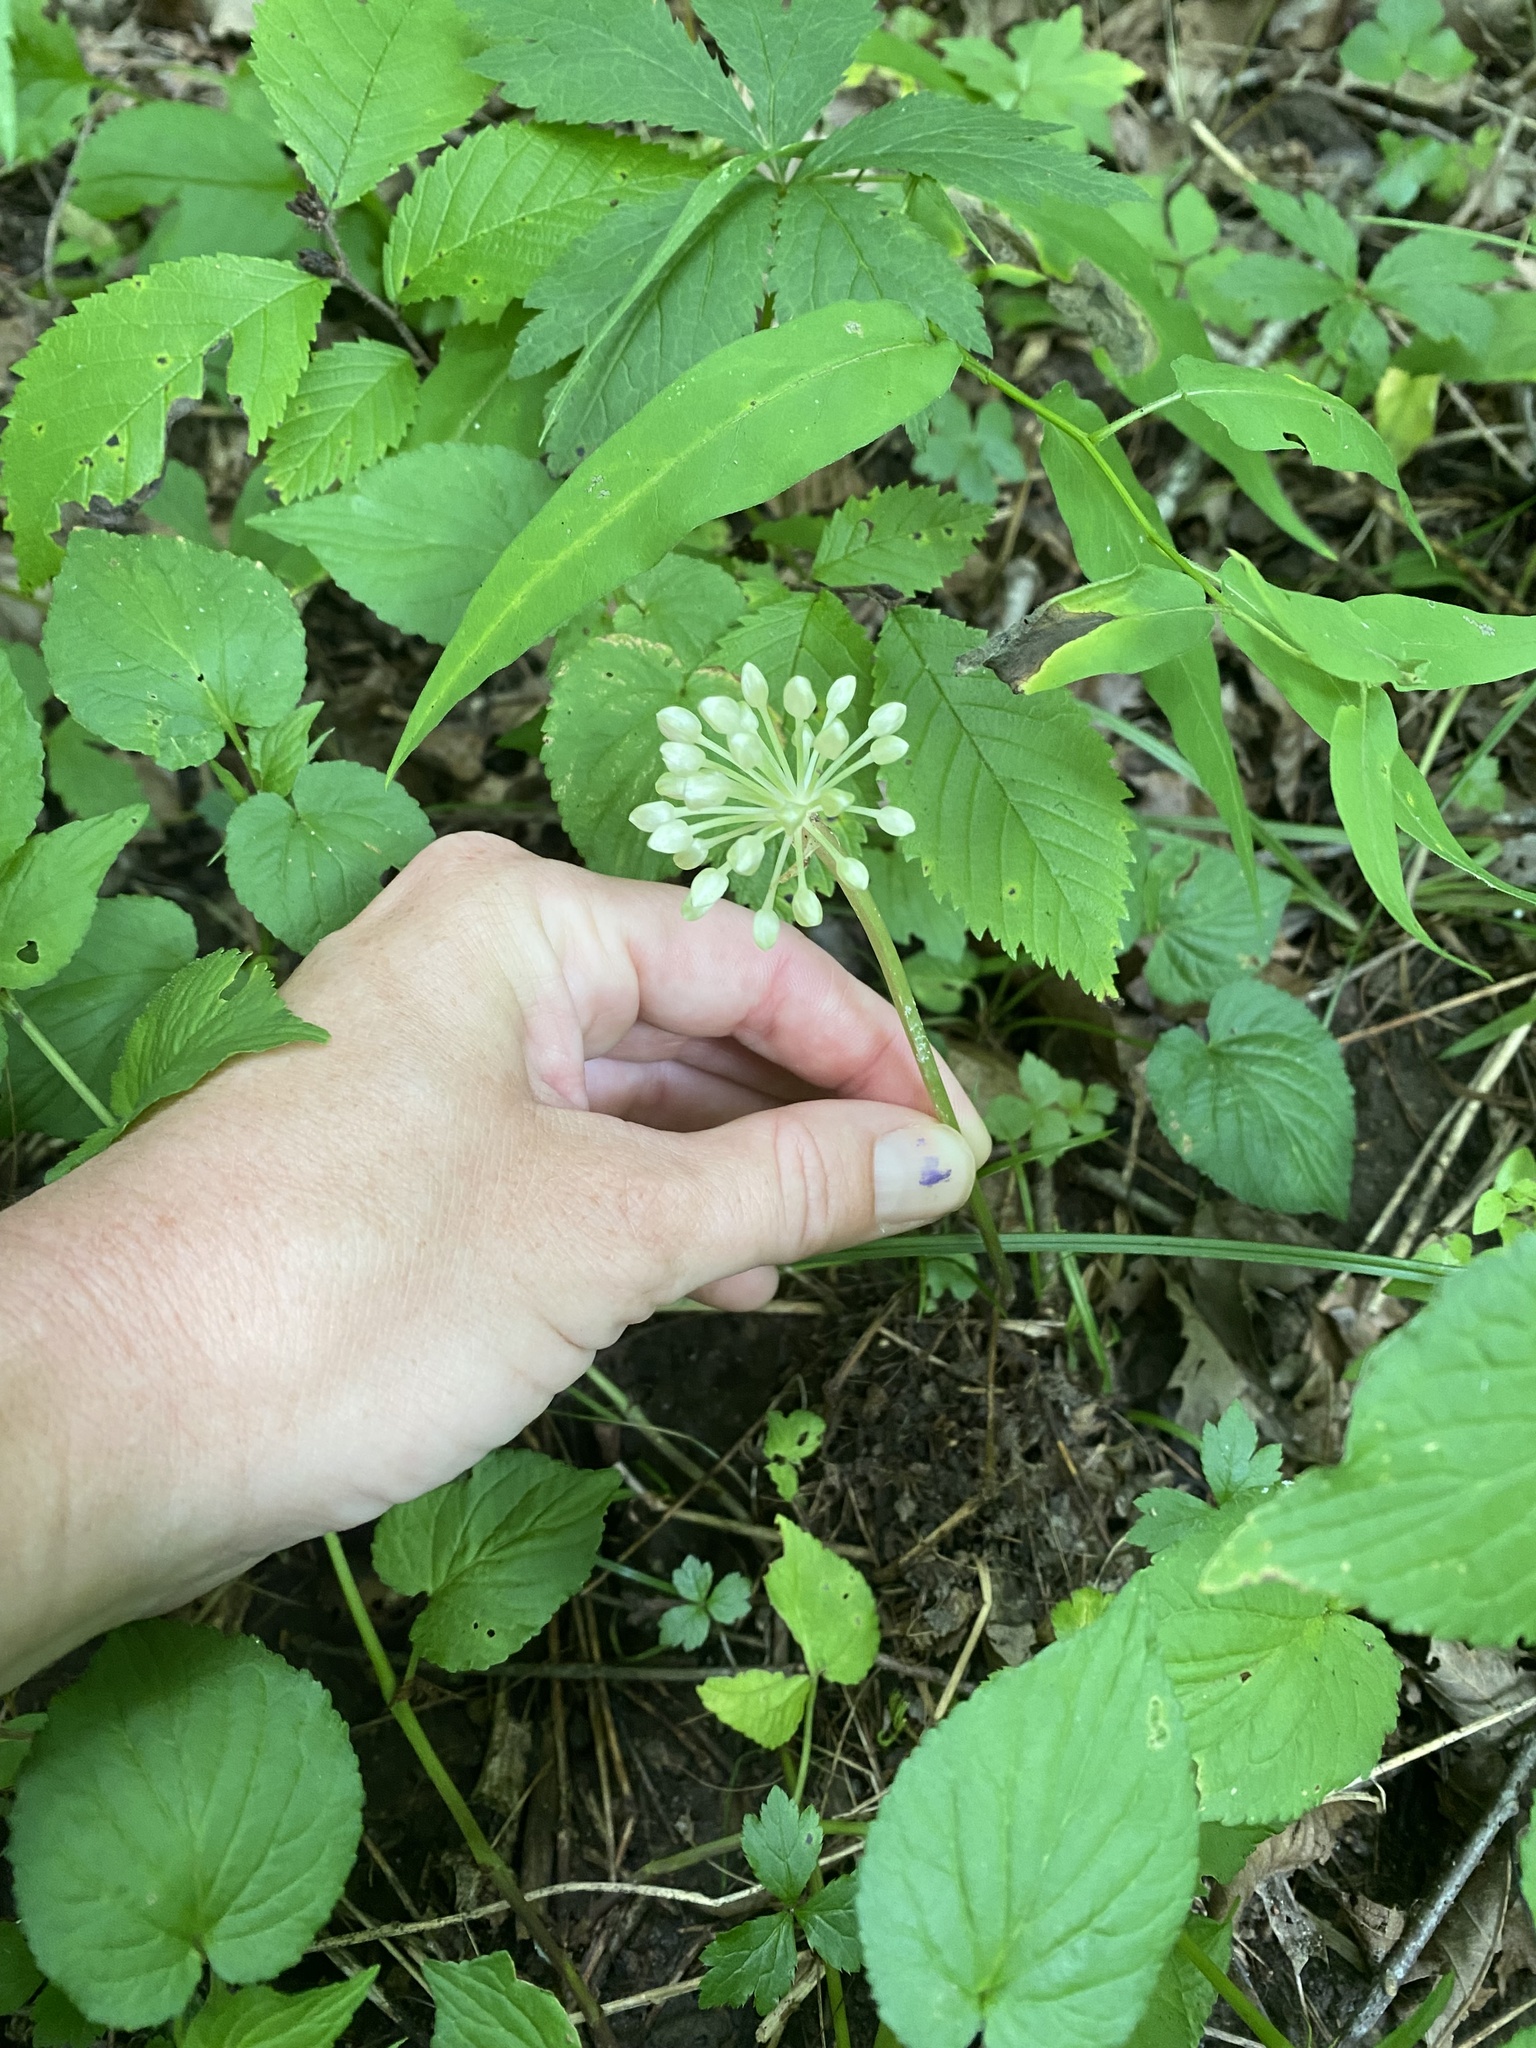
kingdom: Plantae
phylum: Tracheophyta
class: Liliopsida
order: Asparagales
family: Amaryllidaceae
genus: Allium
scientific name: Allium tricoccum
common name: Ramp
